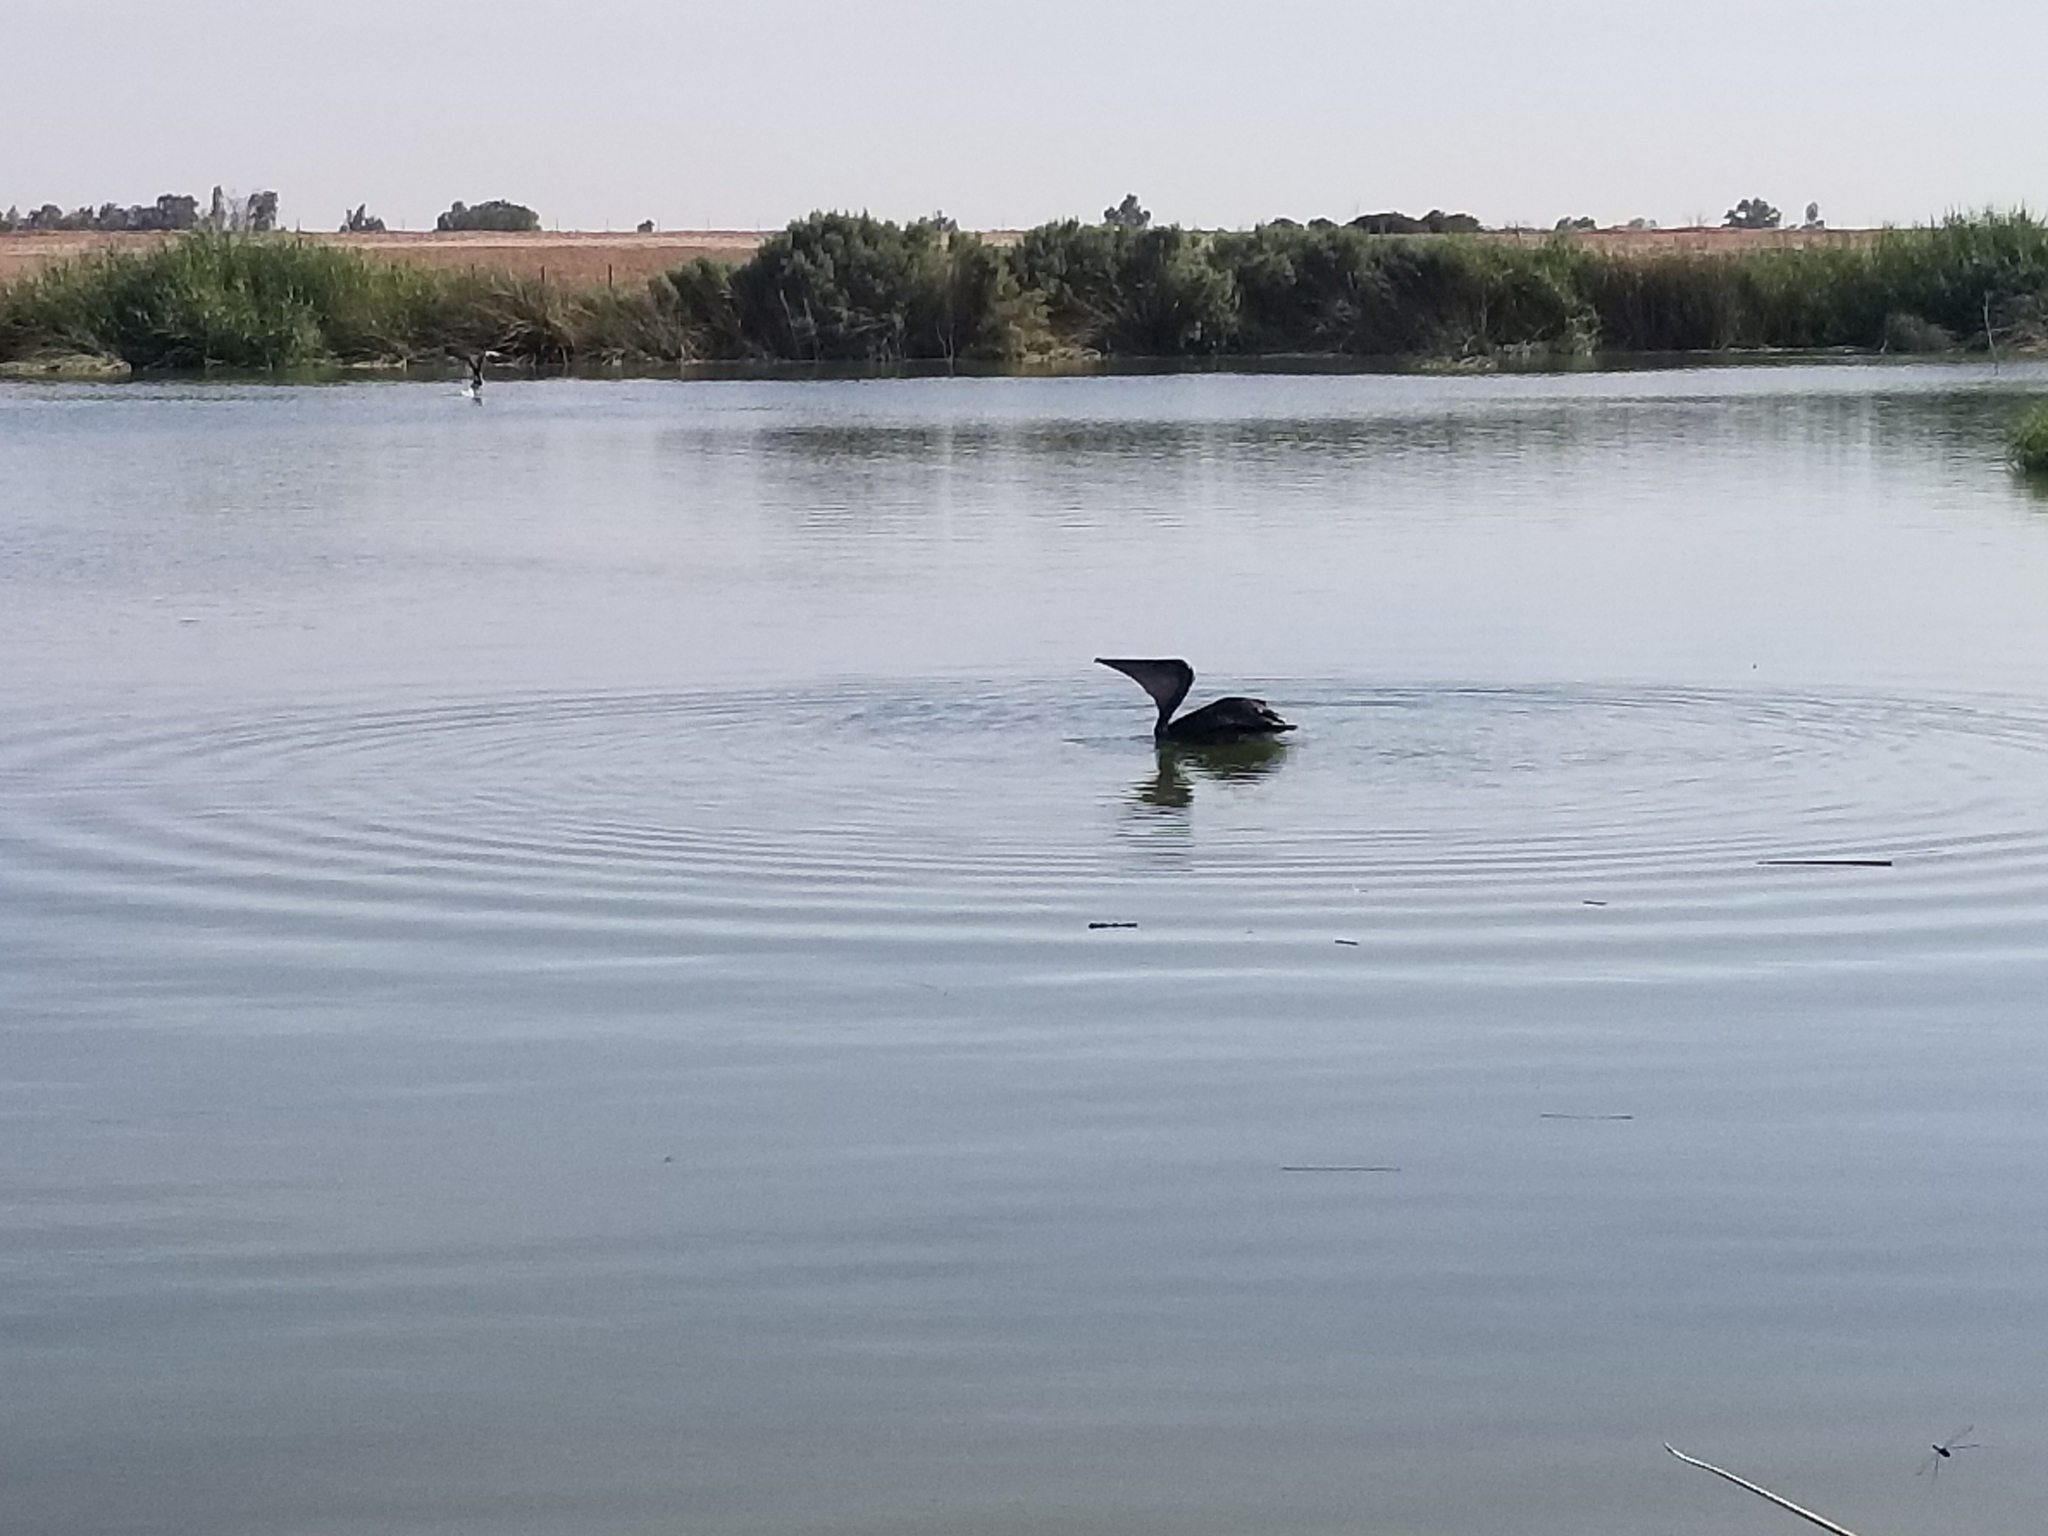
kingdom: Animalia
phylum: Chordata
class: Aves
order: Pelecaniformes
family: Pelecanidae
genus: Pelecanus
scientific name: Pelecanus occidentalis
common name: Brown pelican
